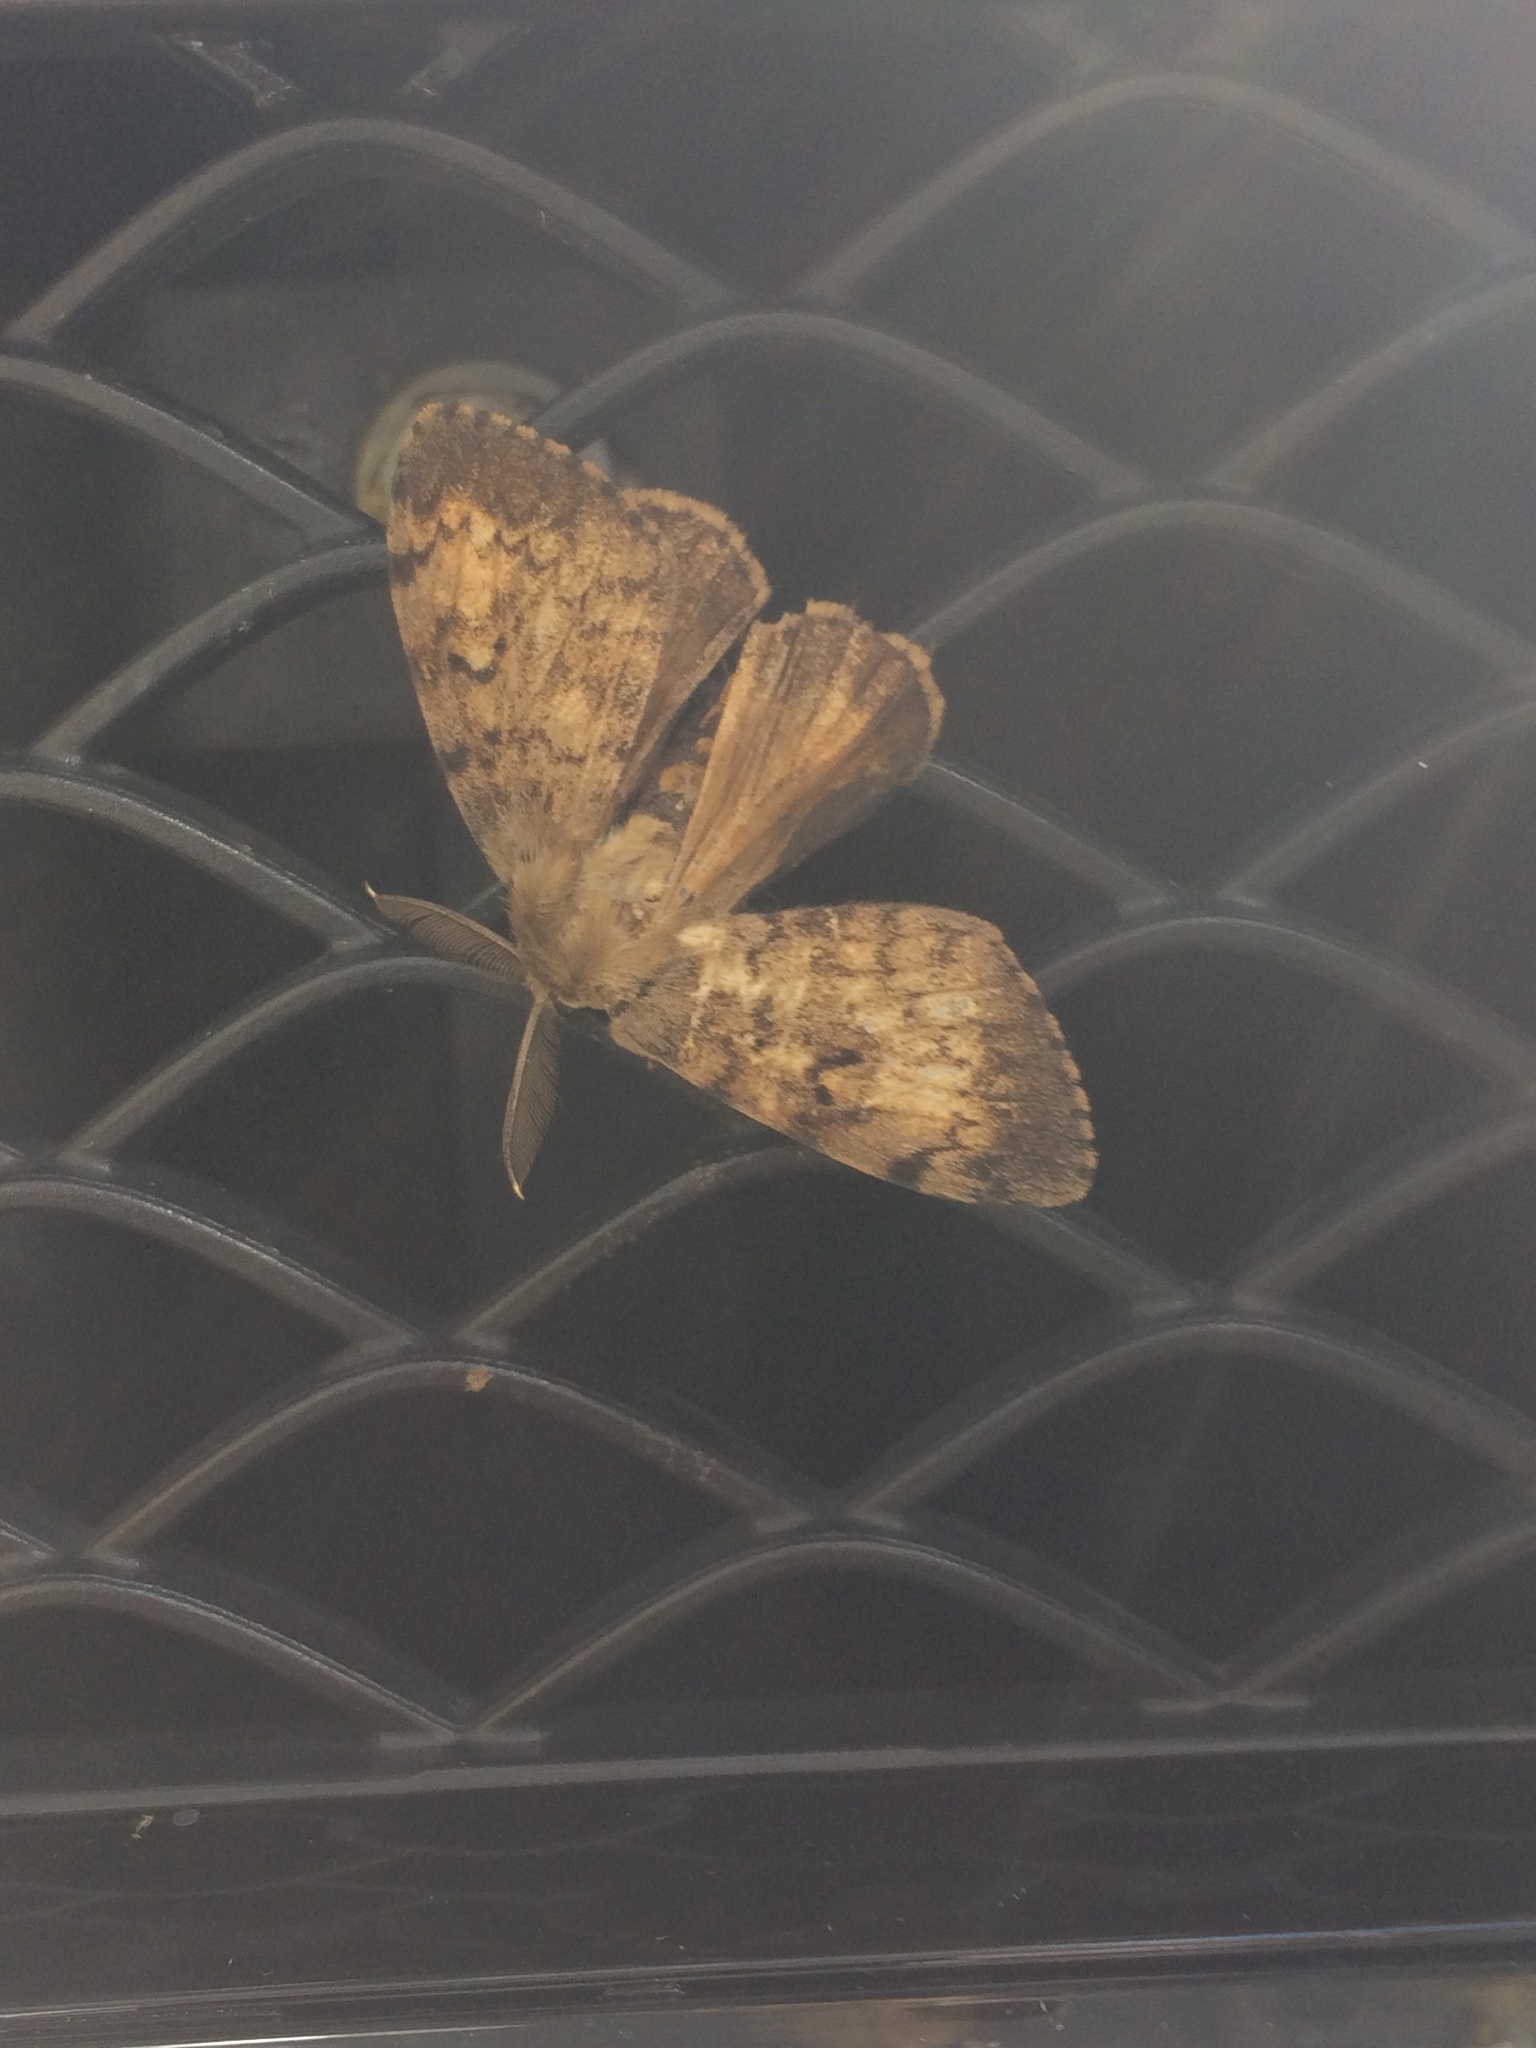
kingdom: Animalia
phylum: Arthropoda
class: Insecta
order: Lepidoptera
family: Erebidae
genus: Lymantria
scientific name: Lymantria dispar
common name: Gypsy moth
